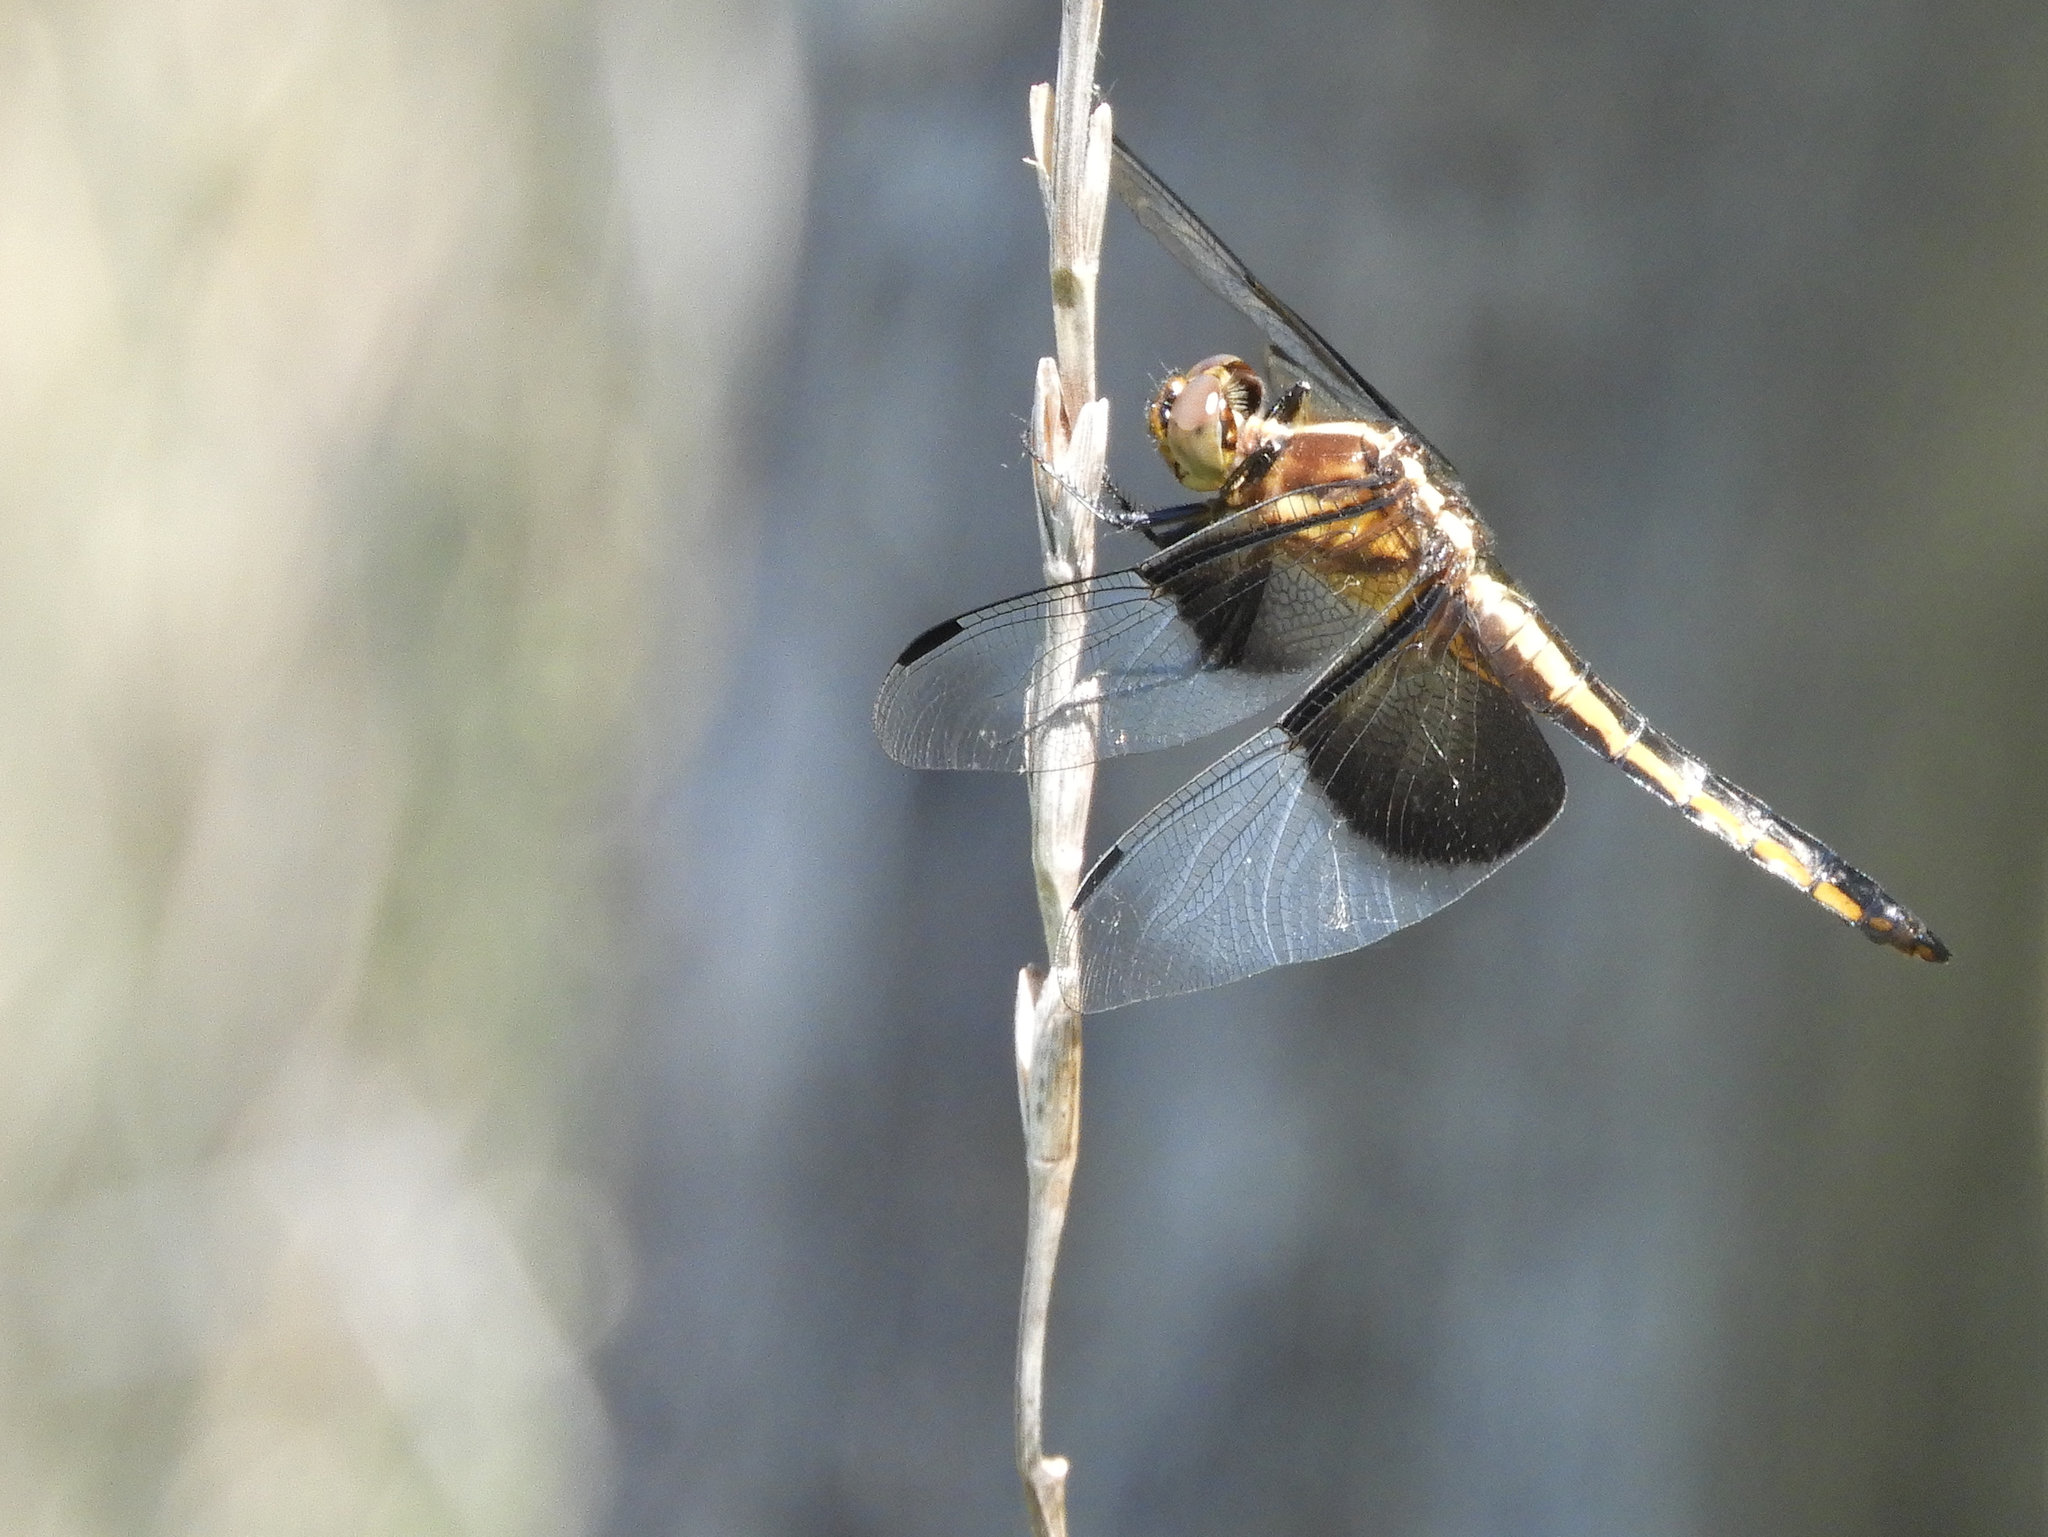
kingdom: Animalia
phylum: Arthropoda
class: Insecta
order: Odonata
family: Libellulidae
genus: Libellula
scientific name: Libellula luctuosa
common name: Widow skimmer
